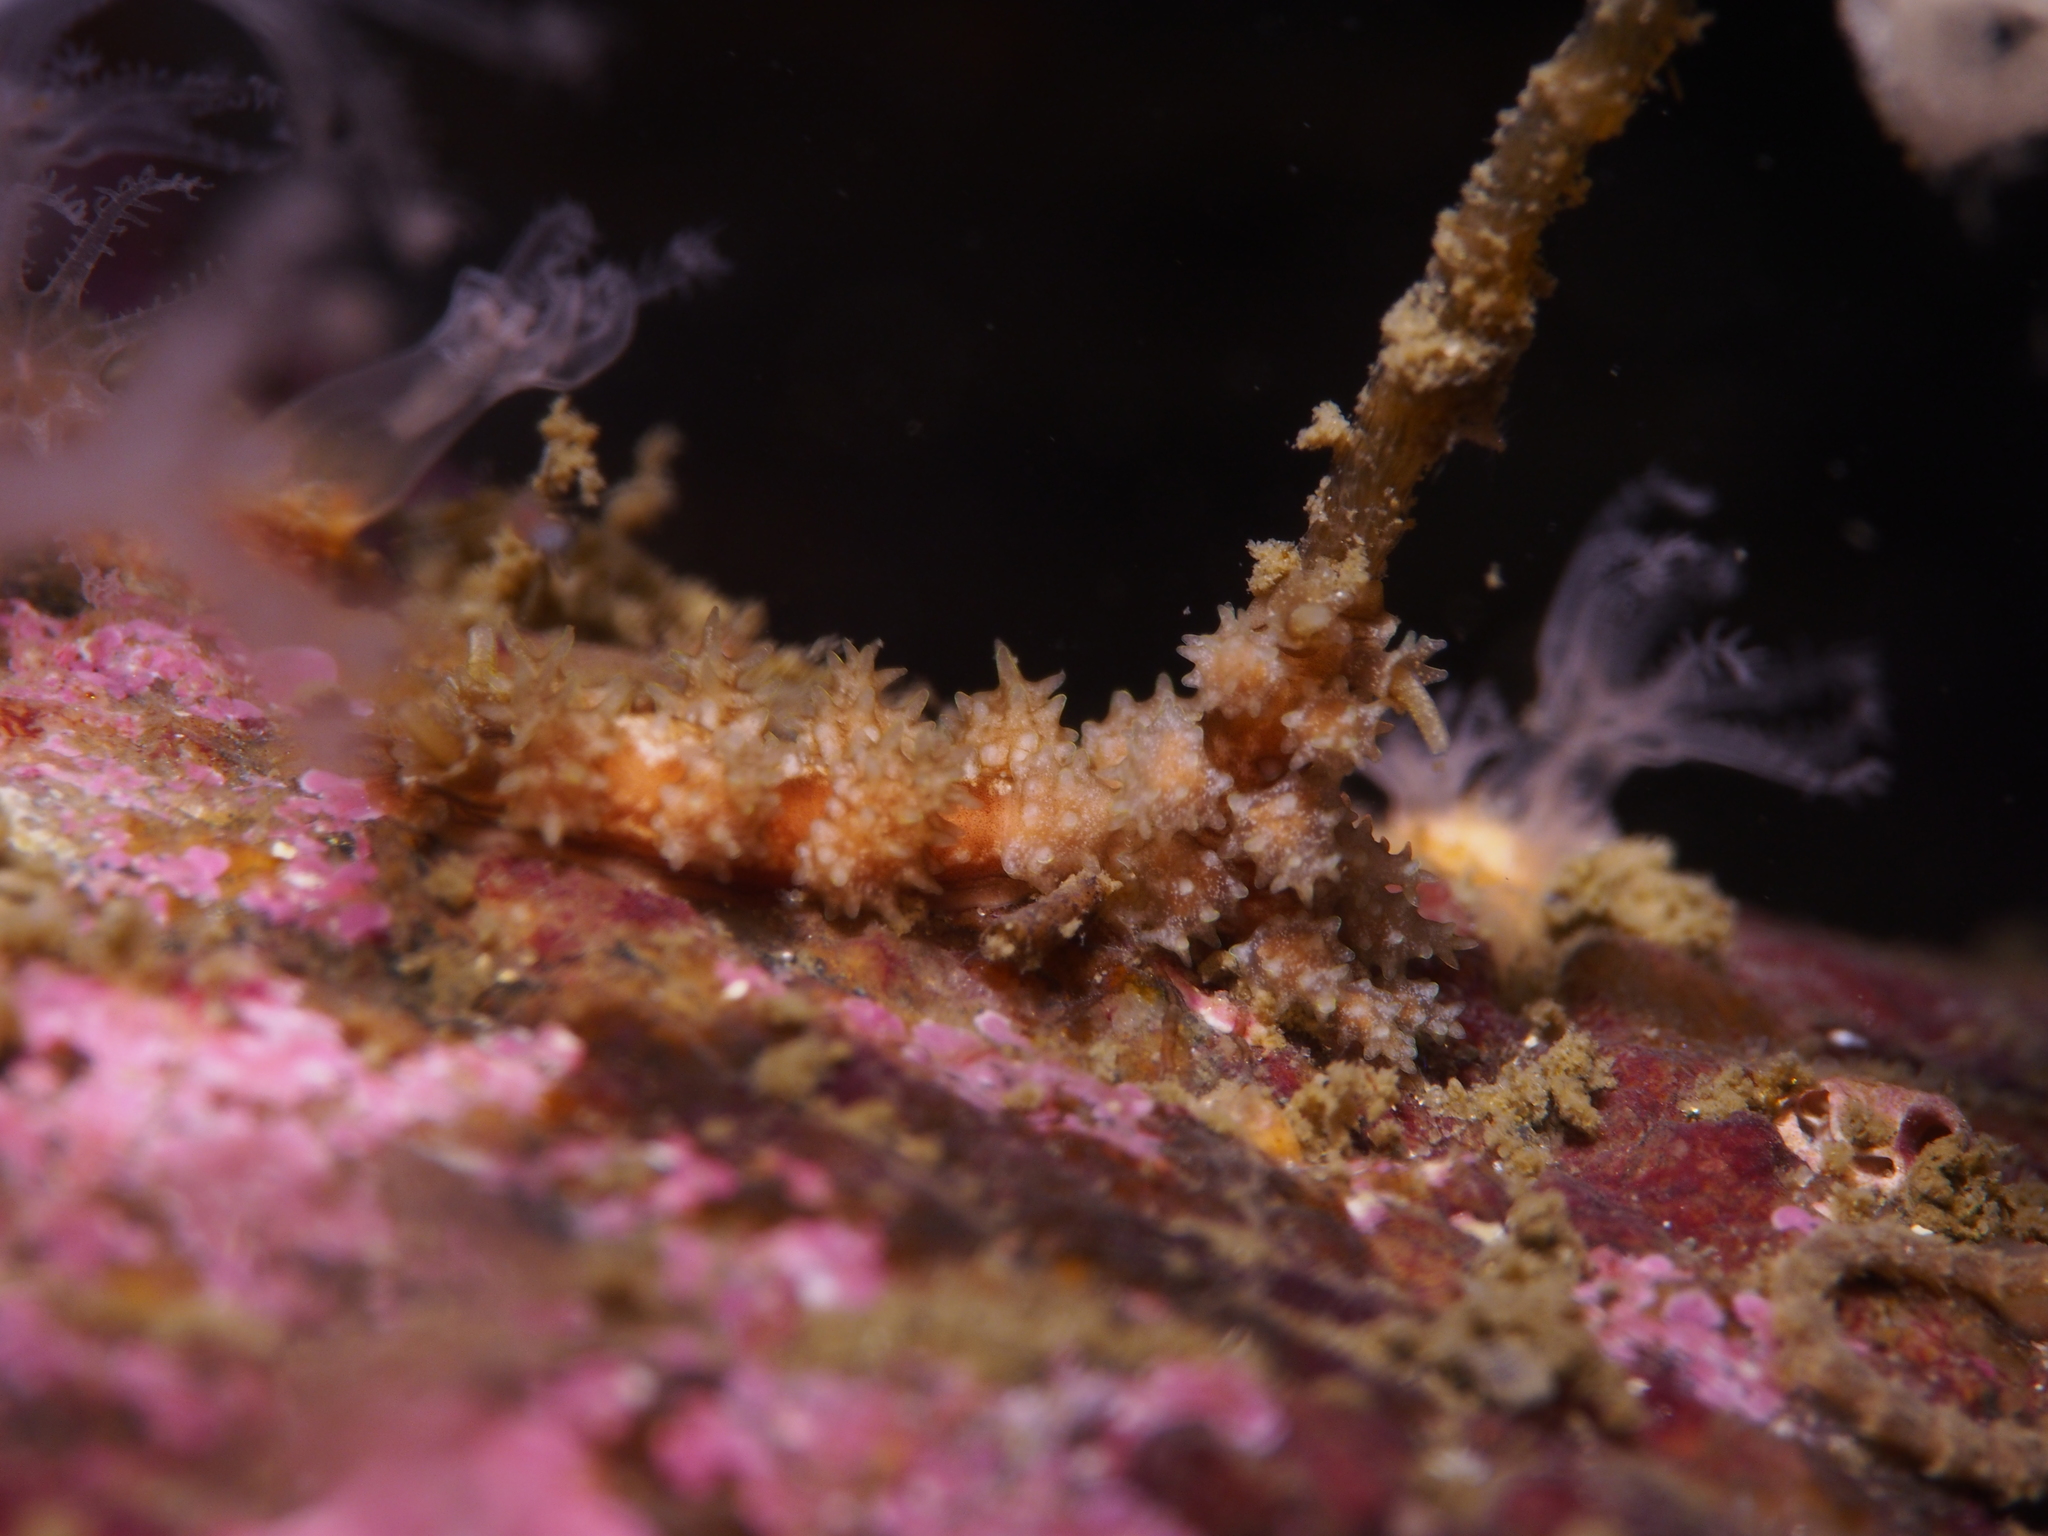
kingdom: Animalia
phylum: Mollusca
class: Gastropoda
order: Nudibranchia
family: Dotidae
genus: Doto
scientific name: Doto hystrix
